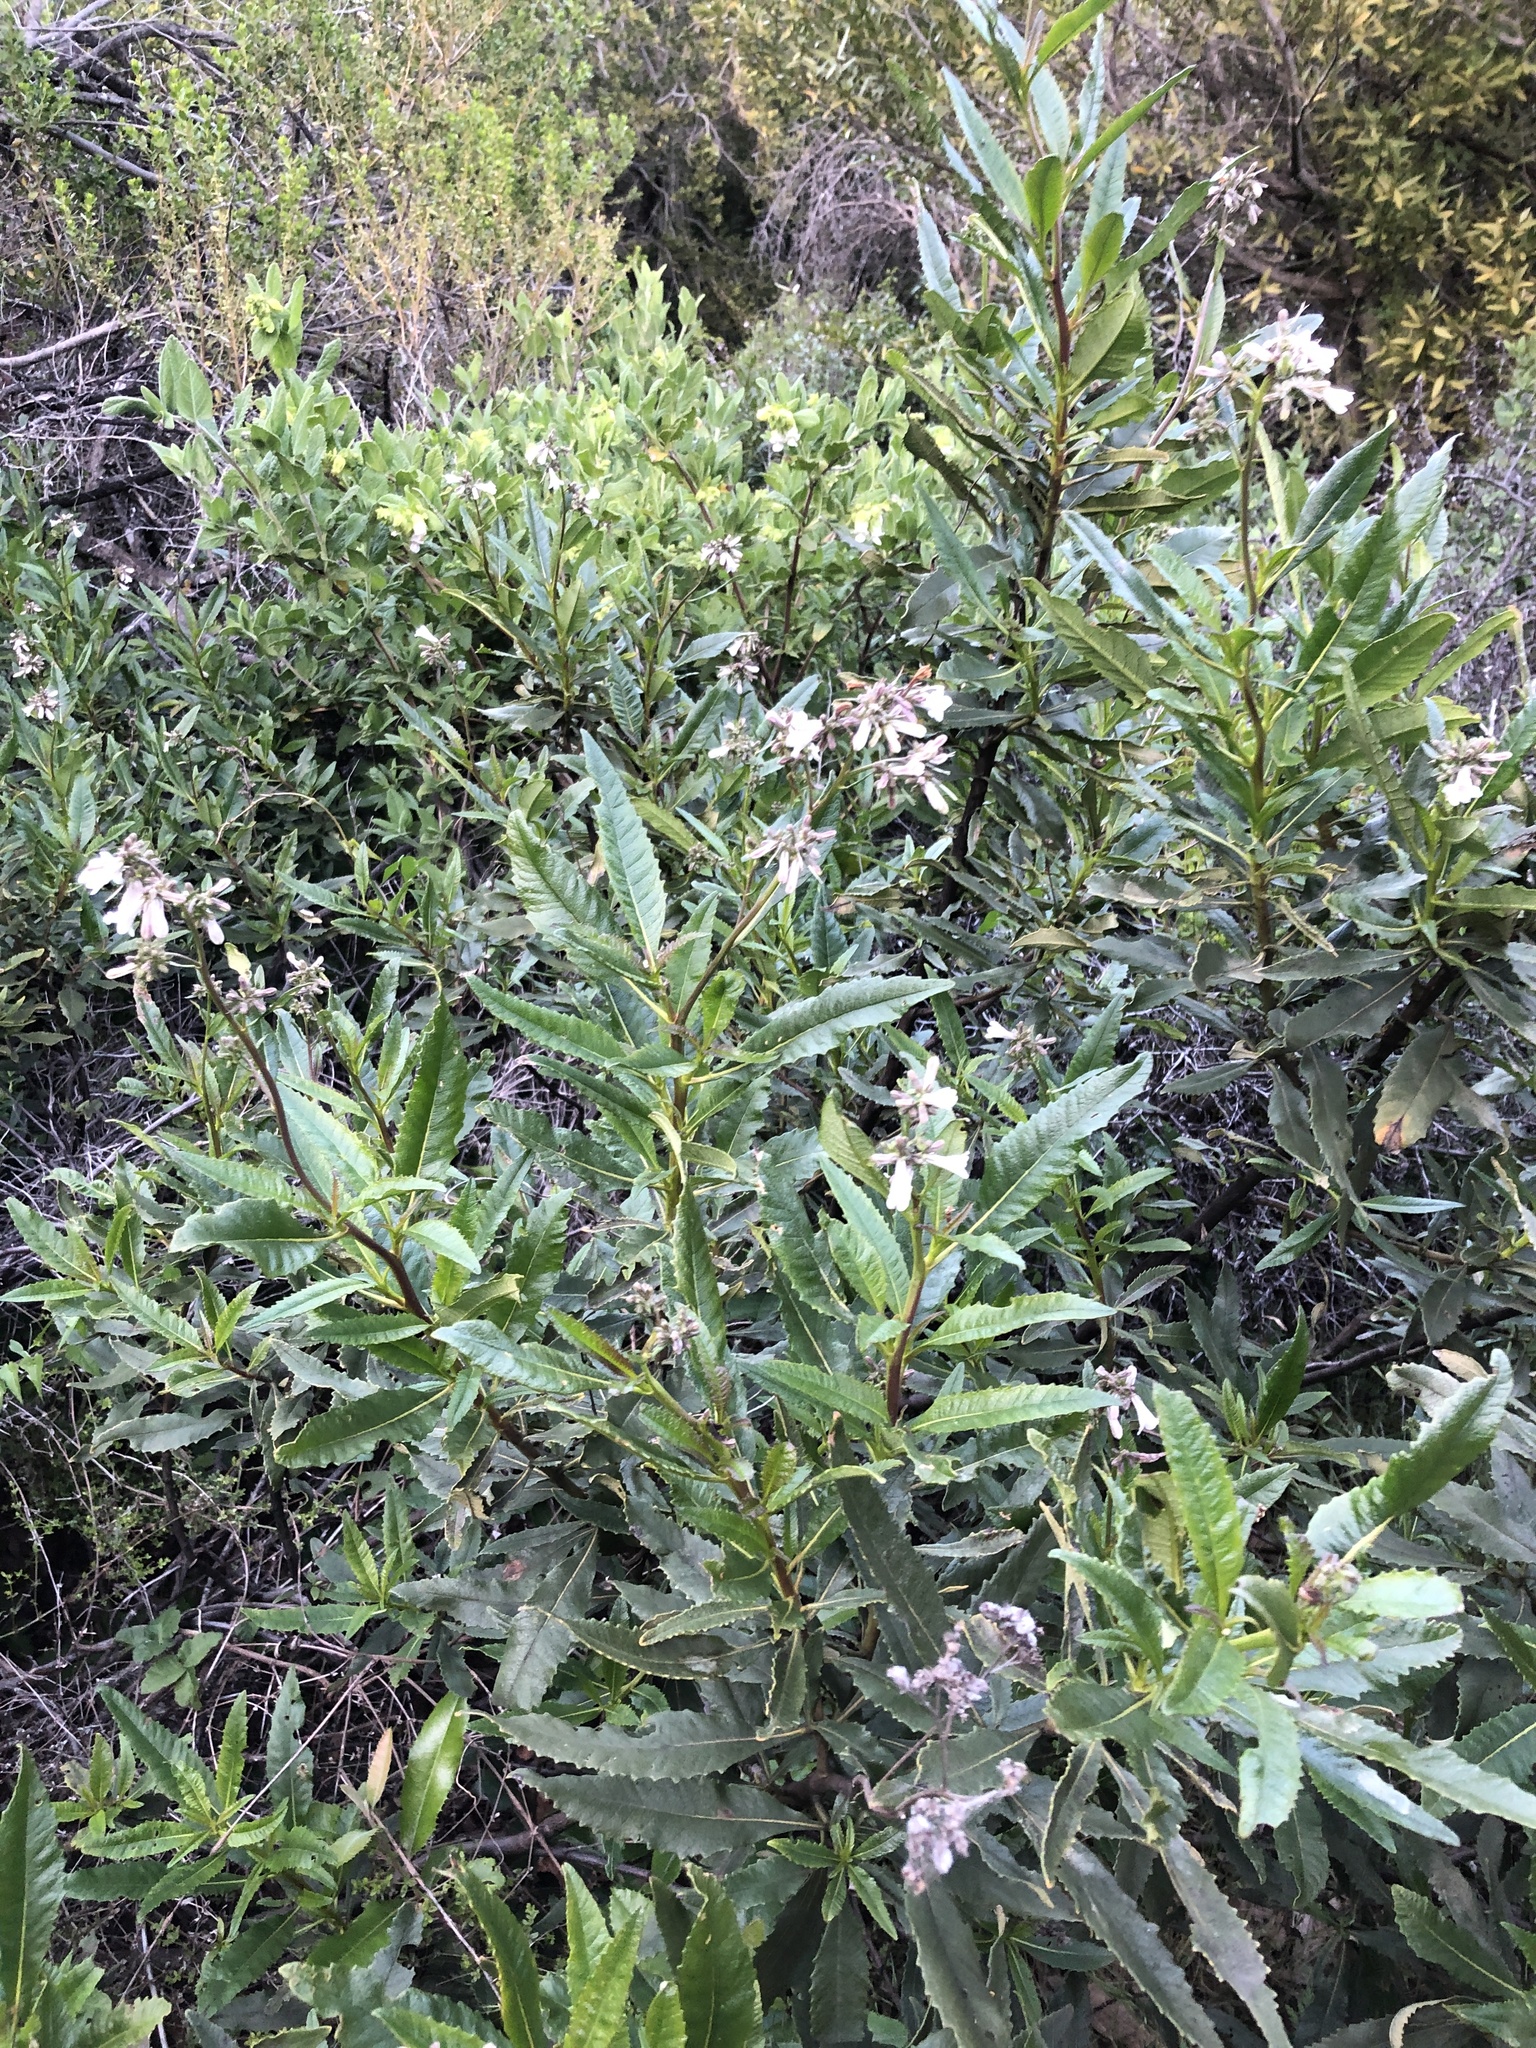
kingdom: Plantae
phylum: Tracheophyta
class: Magnoliopsida
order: Boraginales
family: Namaceae
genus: Eriodictyon
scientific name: Eriodictyon californicum
